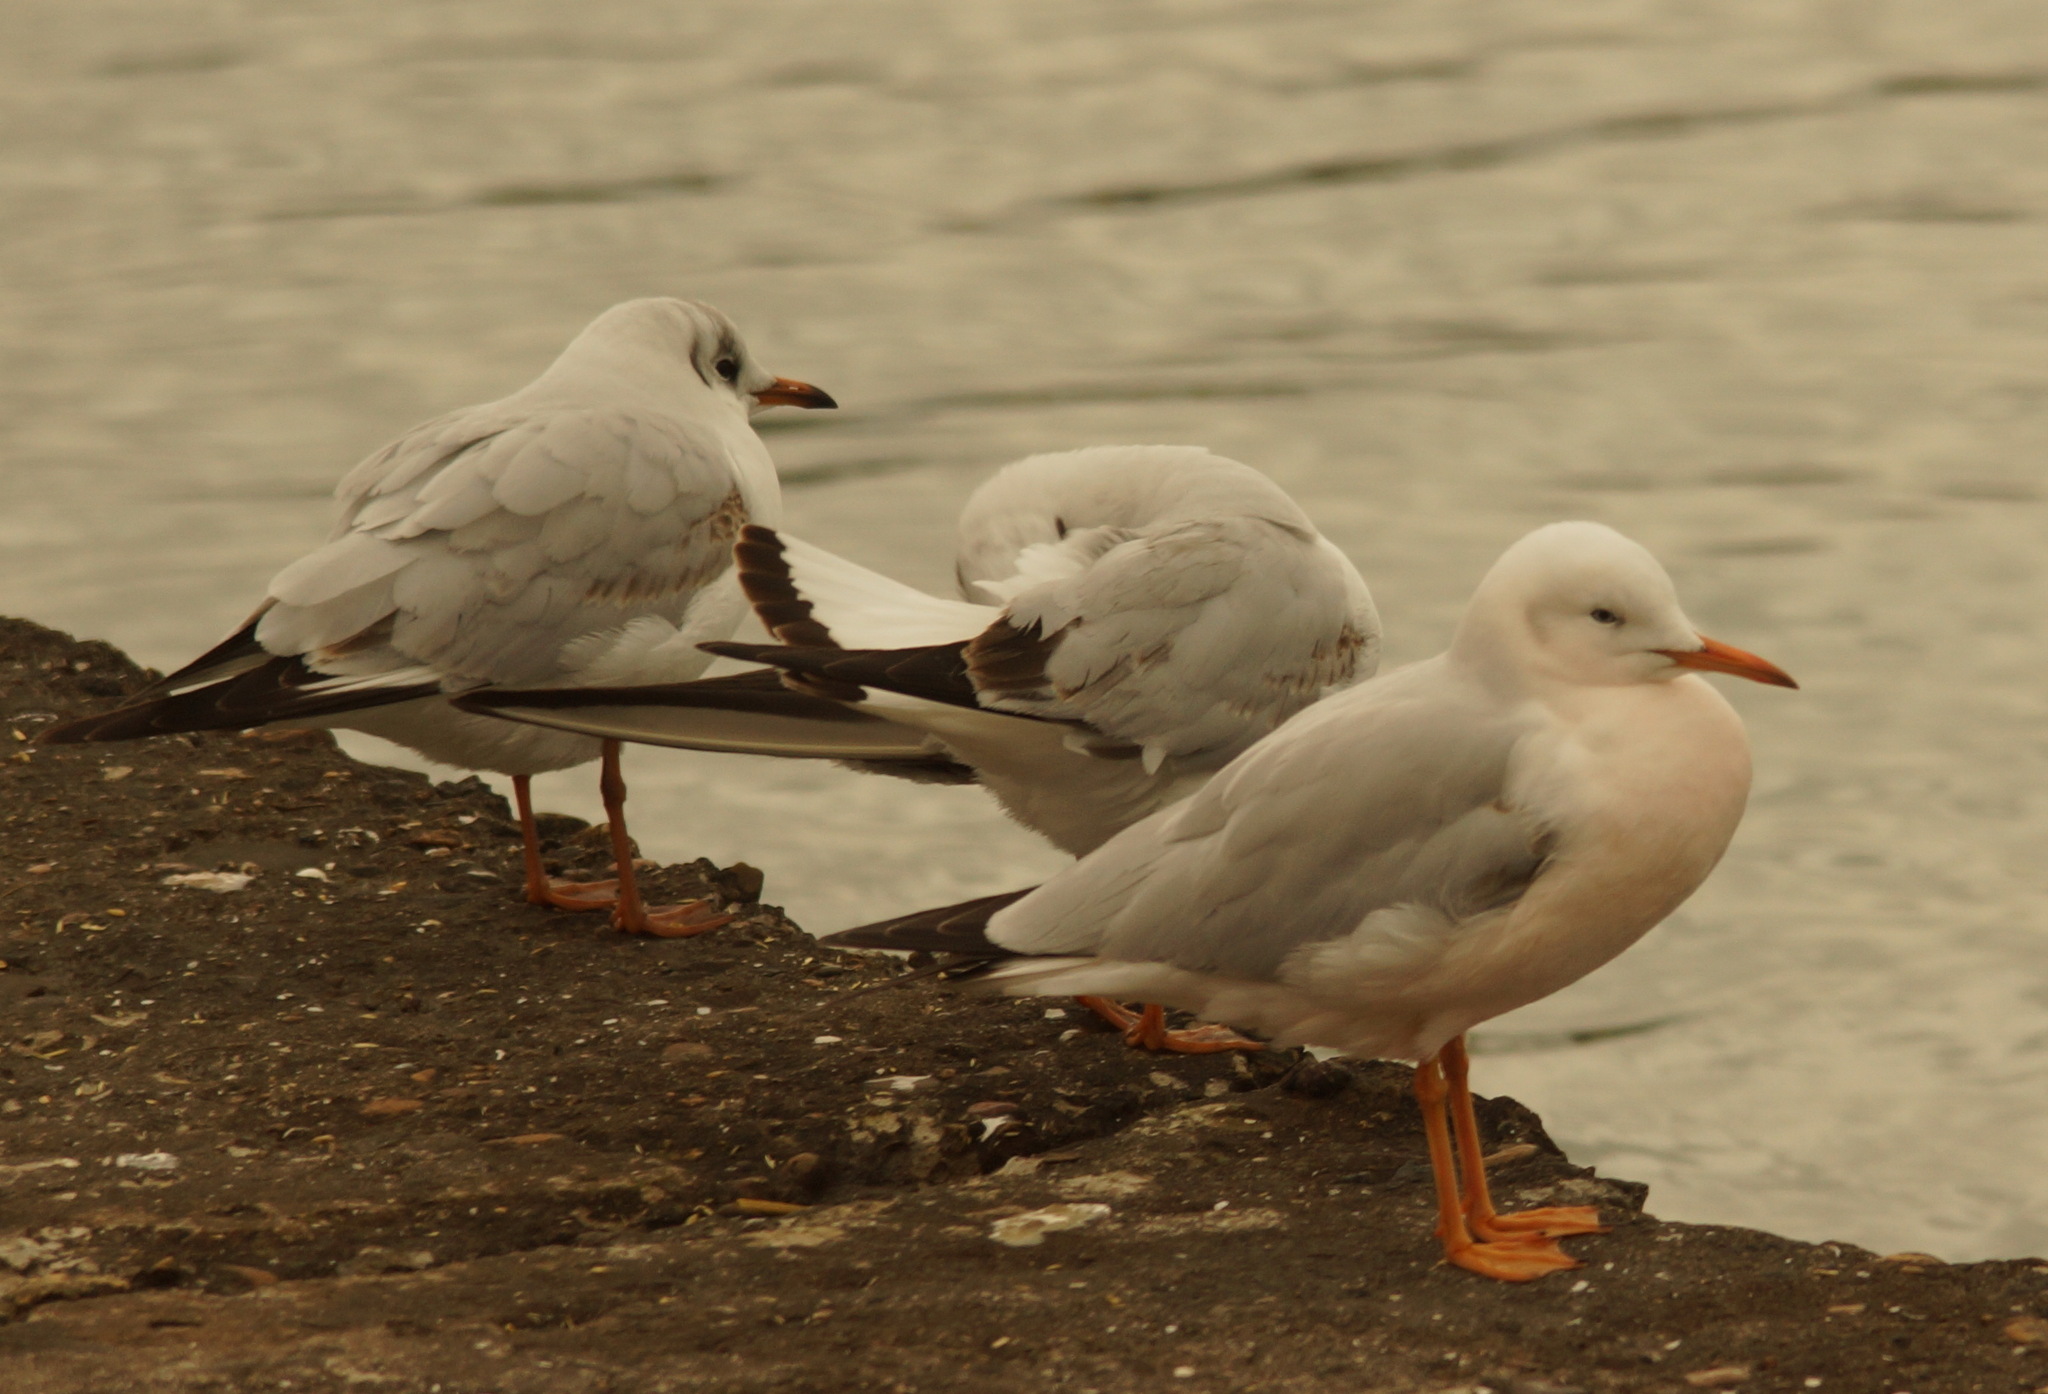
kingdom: Animalia
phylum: Chordata
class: Aves
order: Charadriiformes
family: Laridae
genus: Chroicocephalus
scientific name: Chroicocephalus genei
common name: Slender-billed gull
